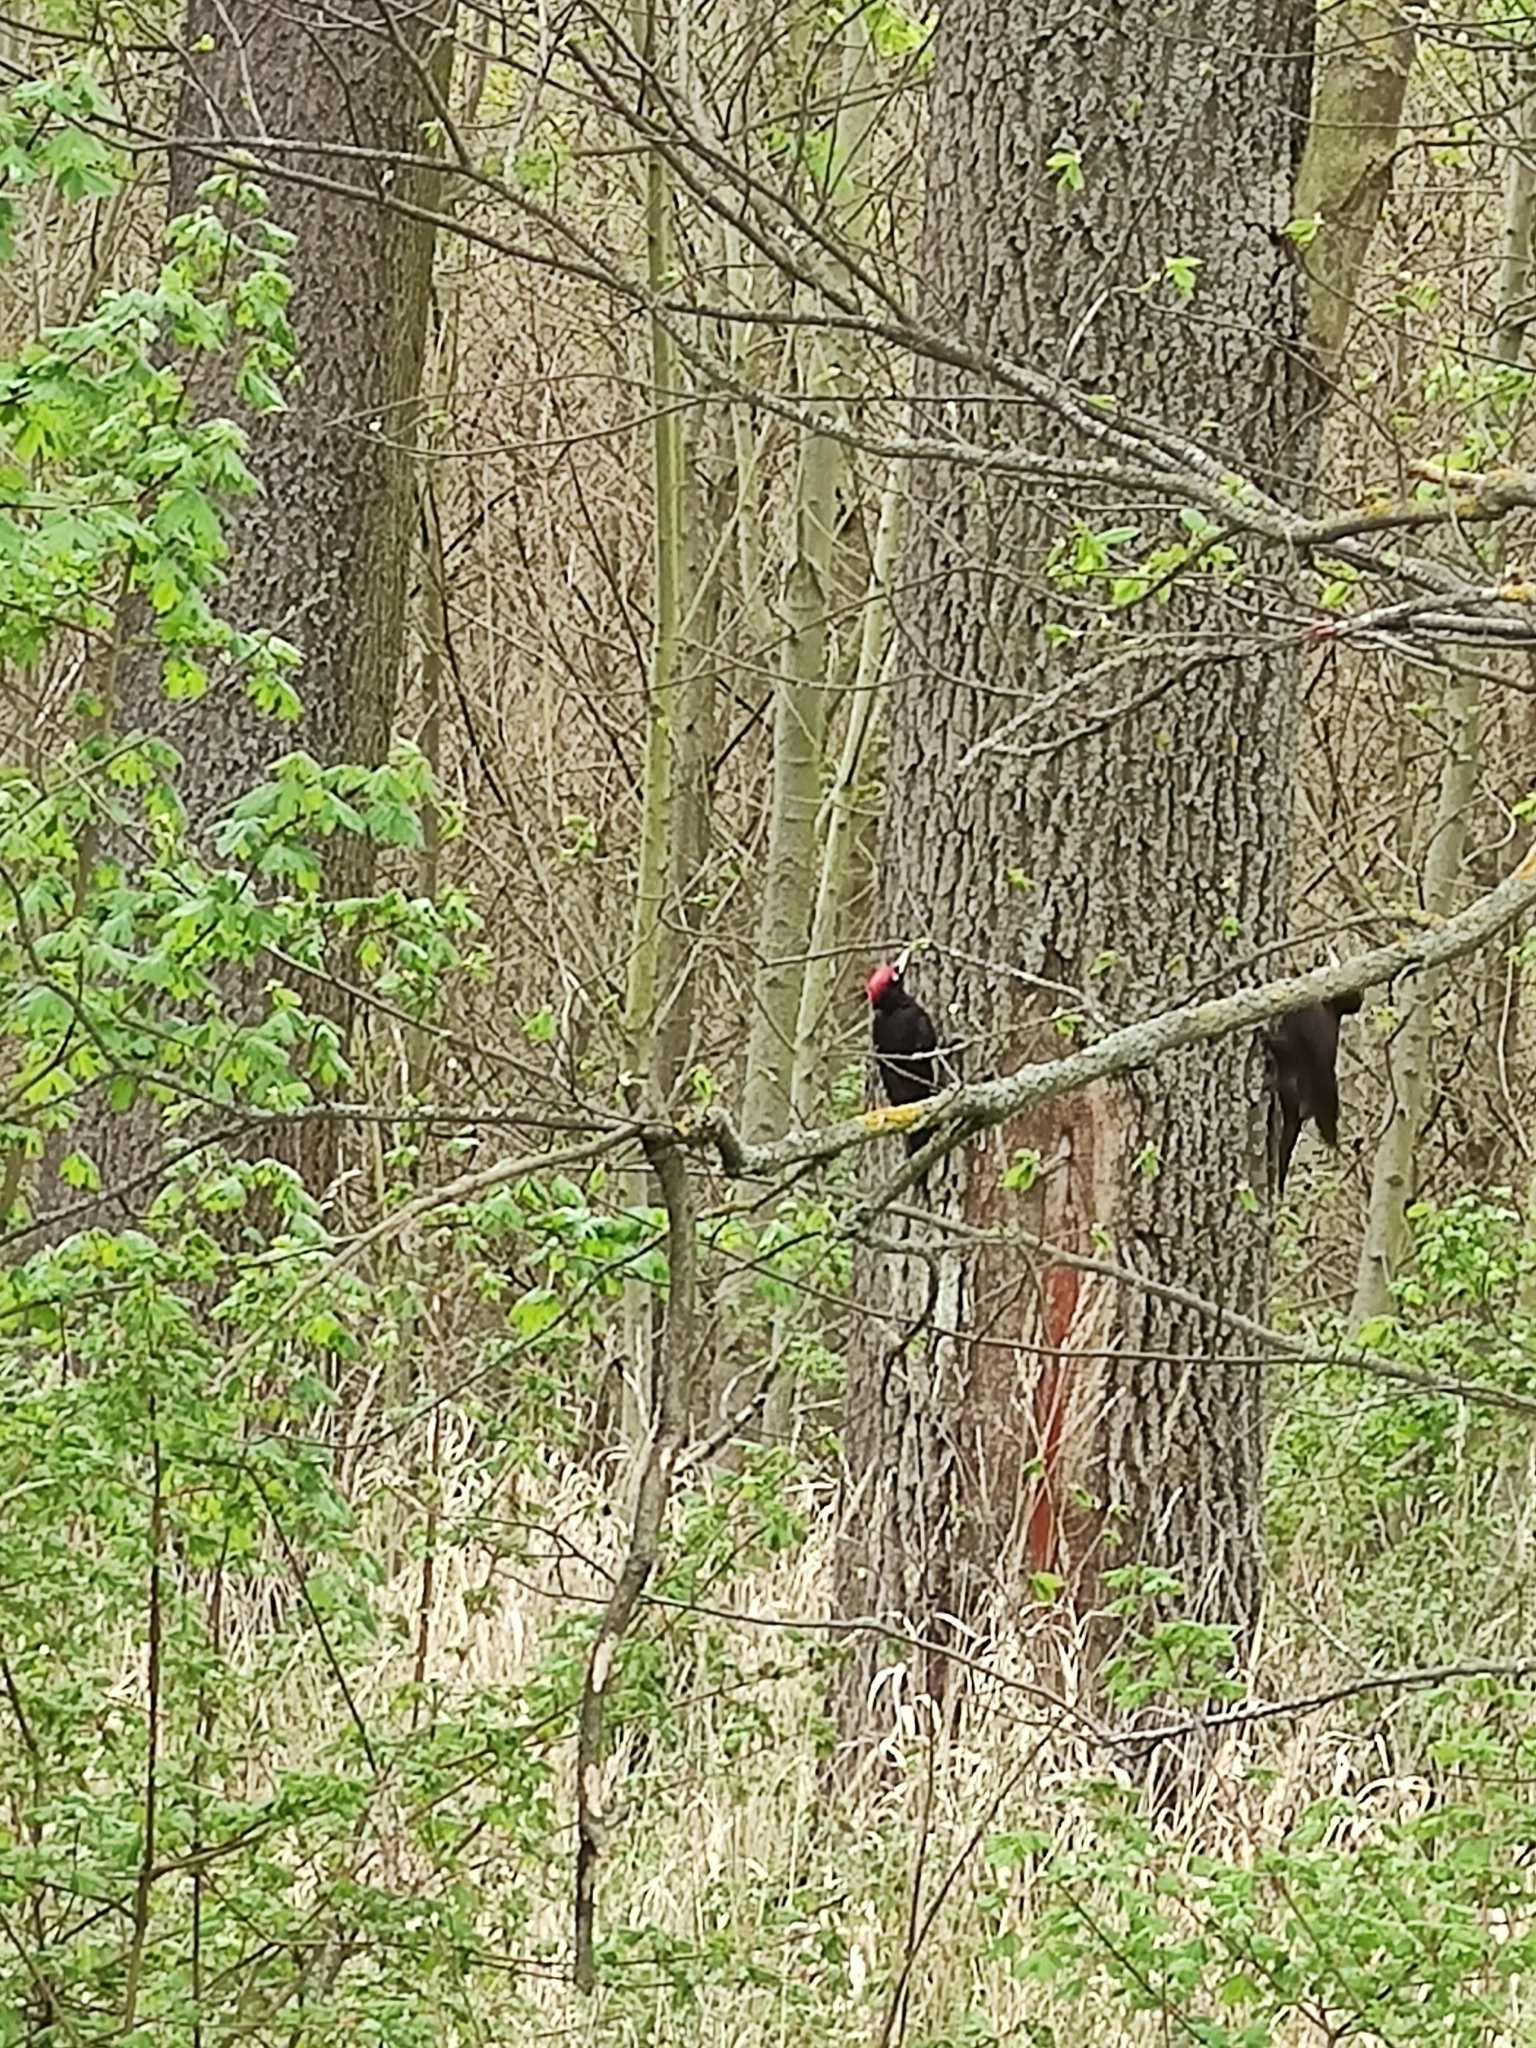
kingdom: Animalia
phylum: Chordata
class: Aves
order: Piciformes
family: Picidae
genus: Dryocopus
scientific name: Dryocopus martius
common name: Black woodpecker
